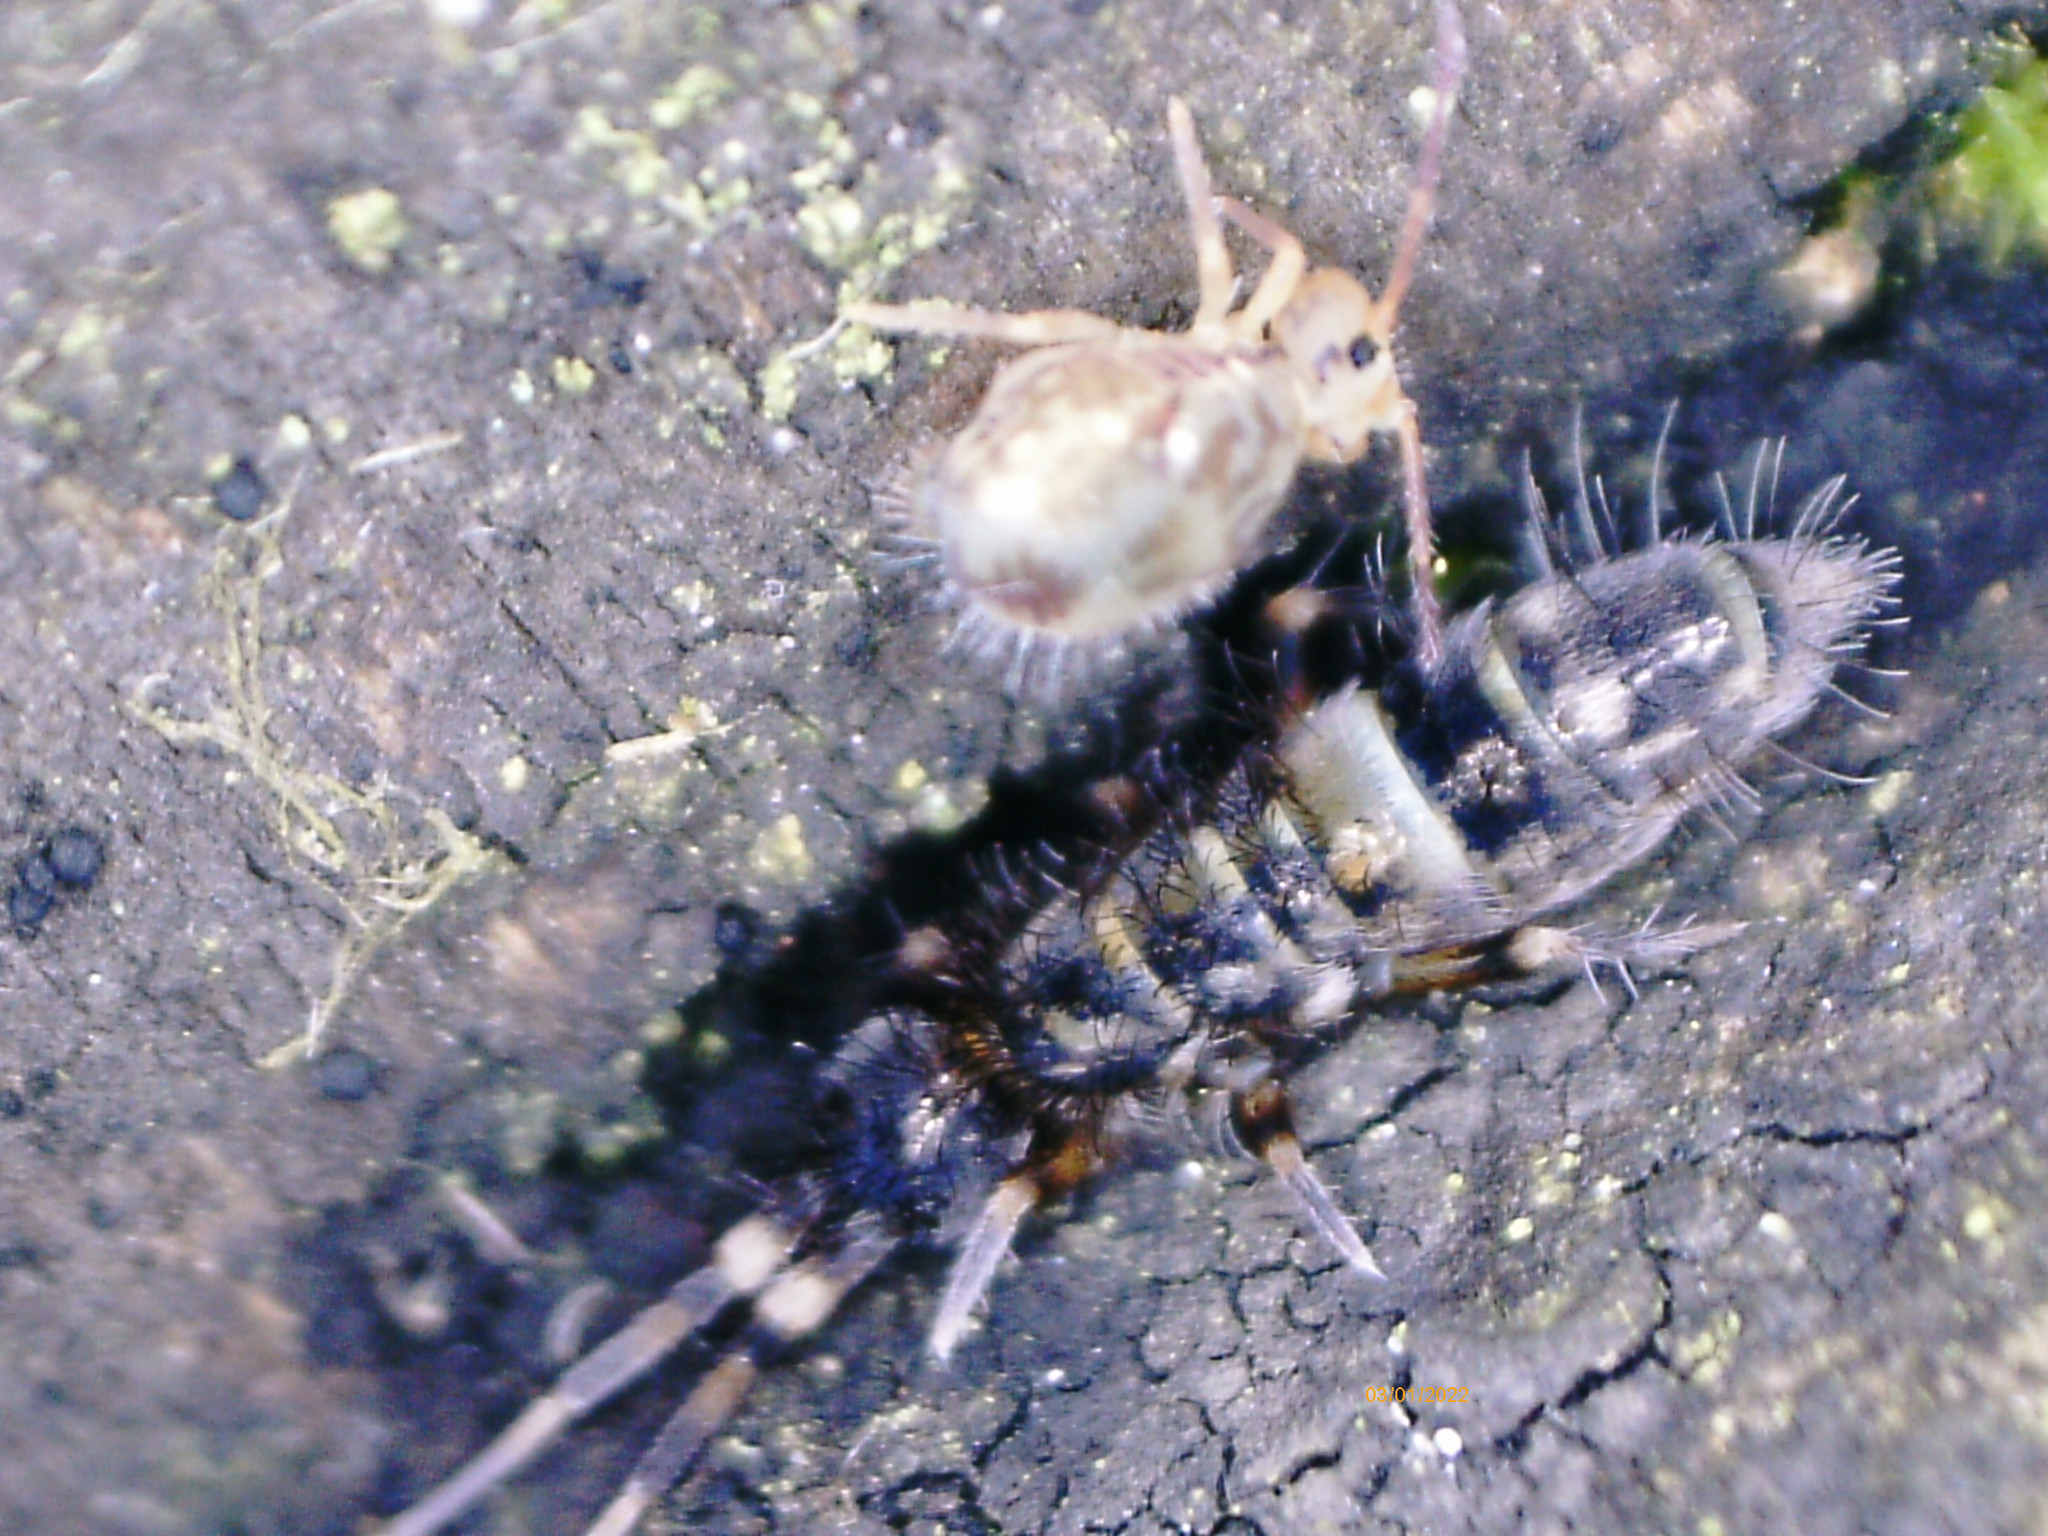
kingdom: Animalia
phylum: Arthropoda
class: Collembola
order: Symphypleona
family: Dicyrtomidae
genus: Dicyrtomina
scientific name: Dicyrtomina saundersi
